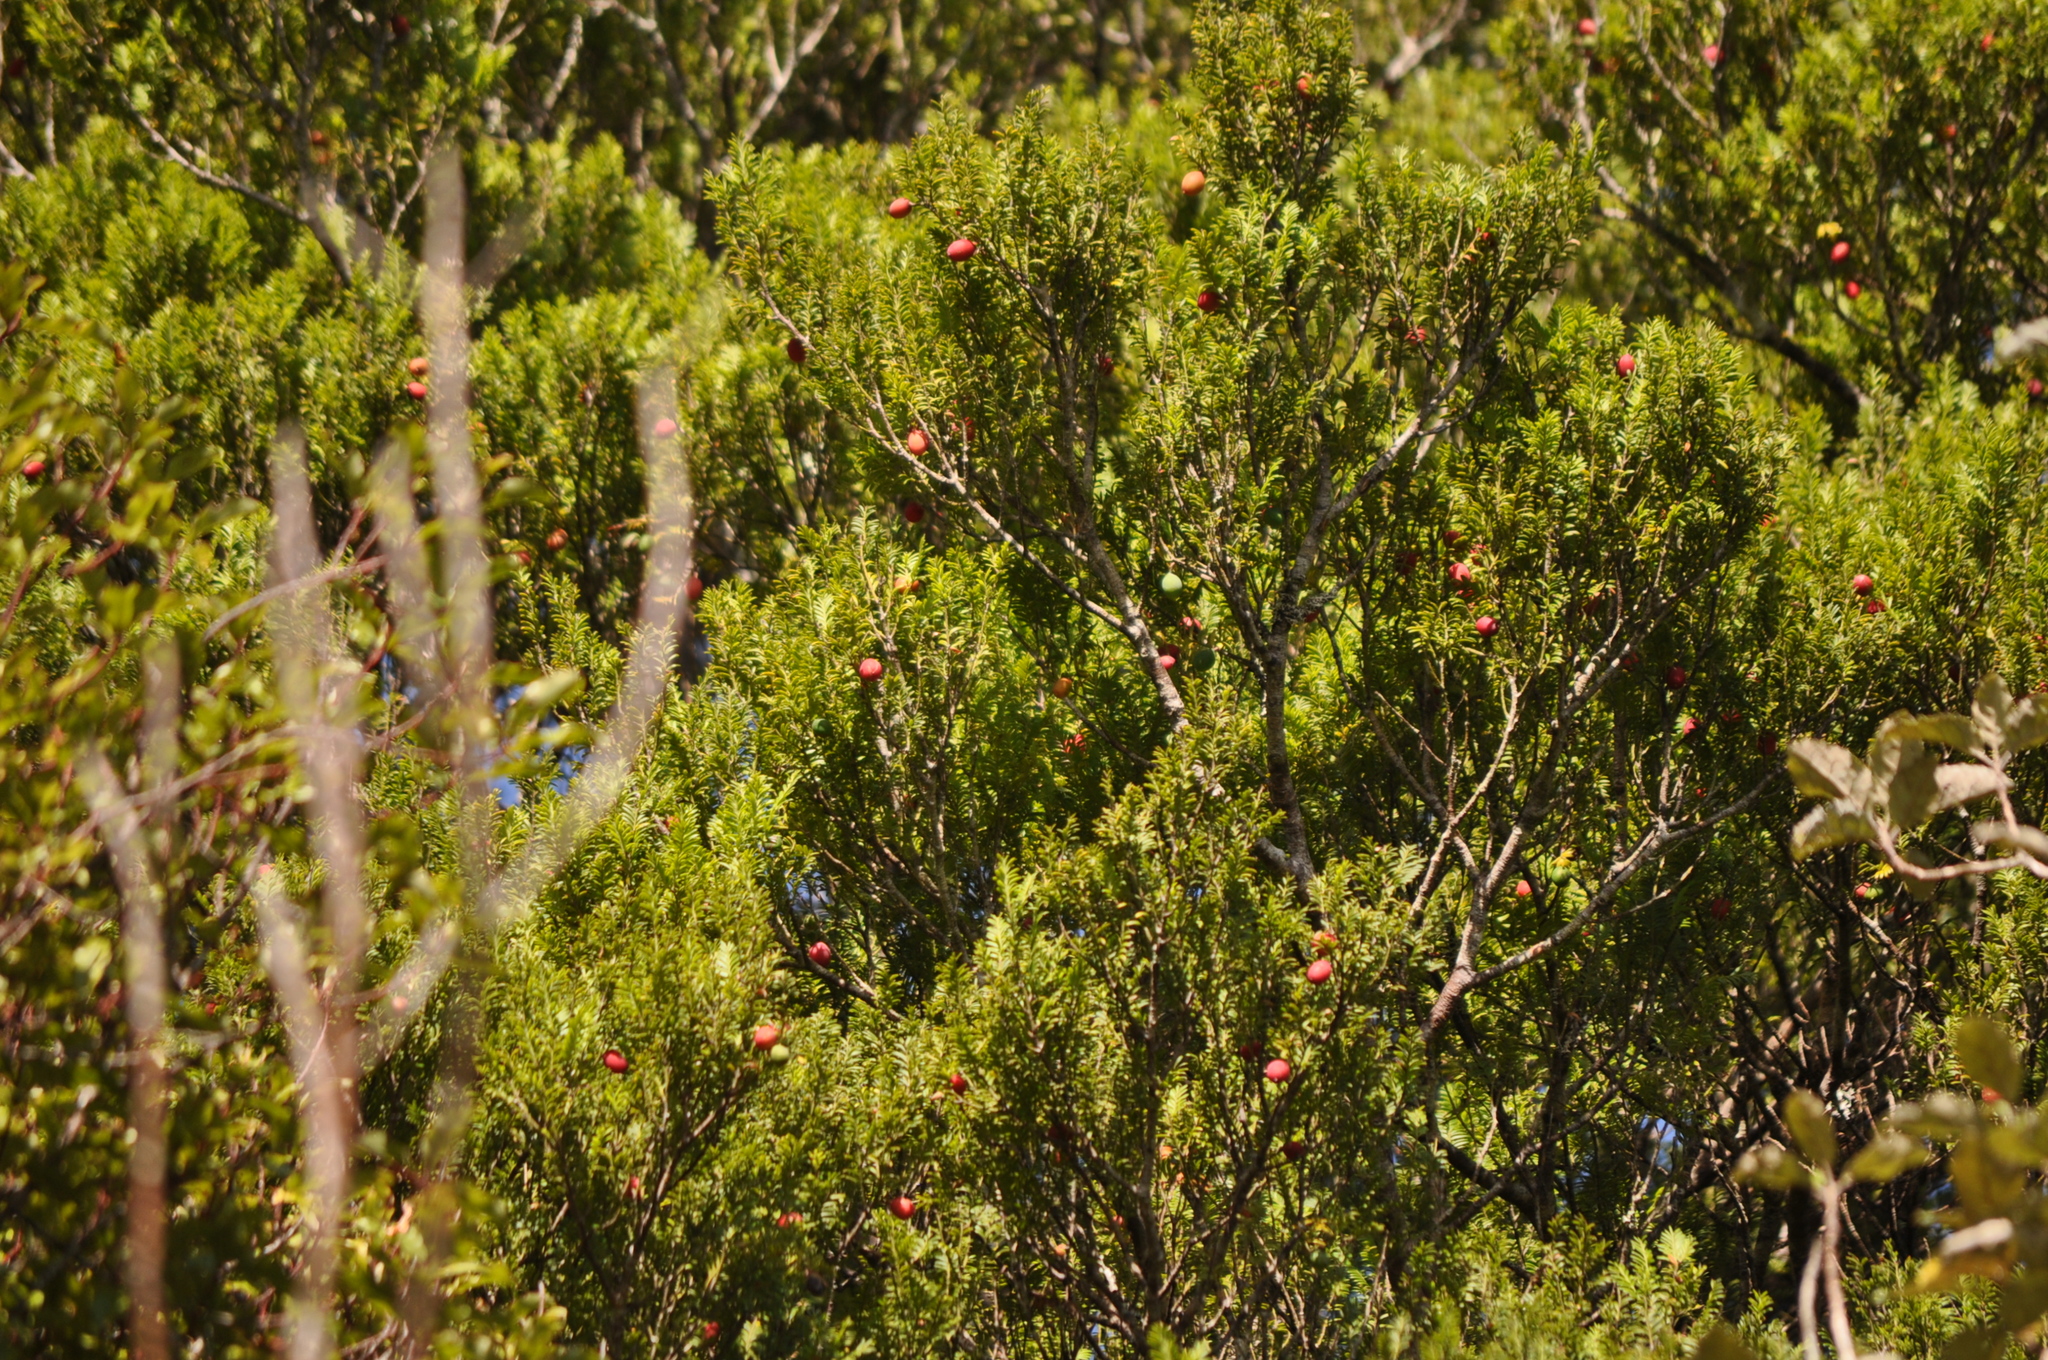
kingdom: Plantae
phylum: Tracheophyta
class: Pinopsida
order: Pinales
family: Podocarpaceae
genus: Prumnopitys
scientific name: Prumnopitys ferruginea
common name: Brown pine
